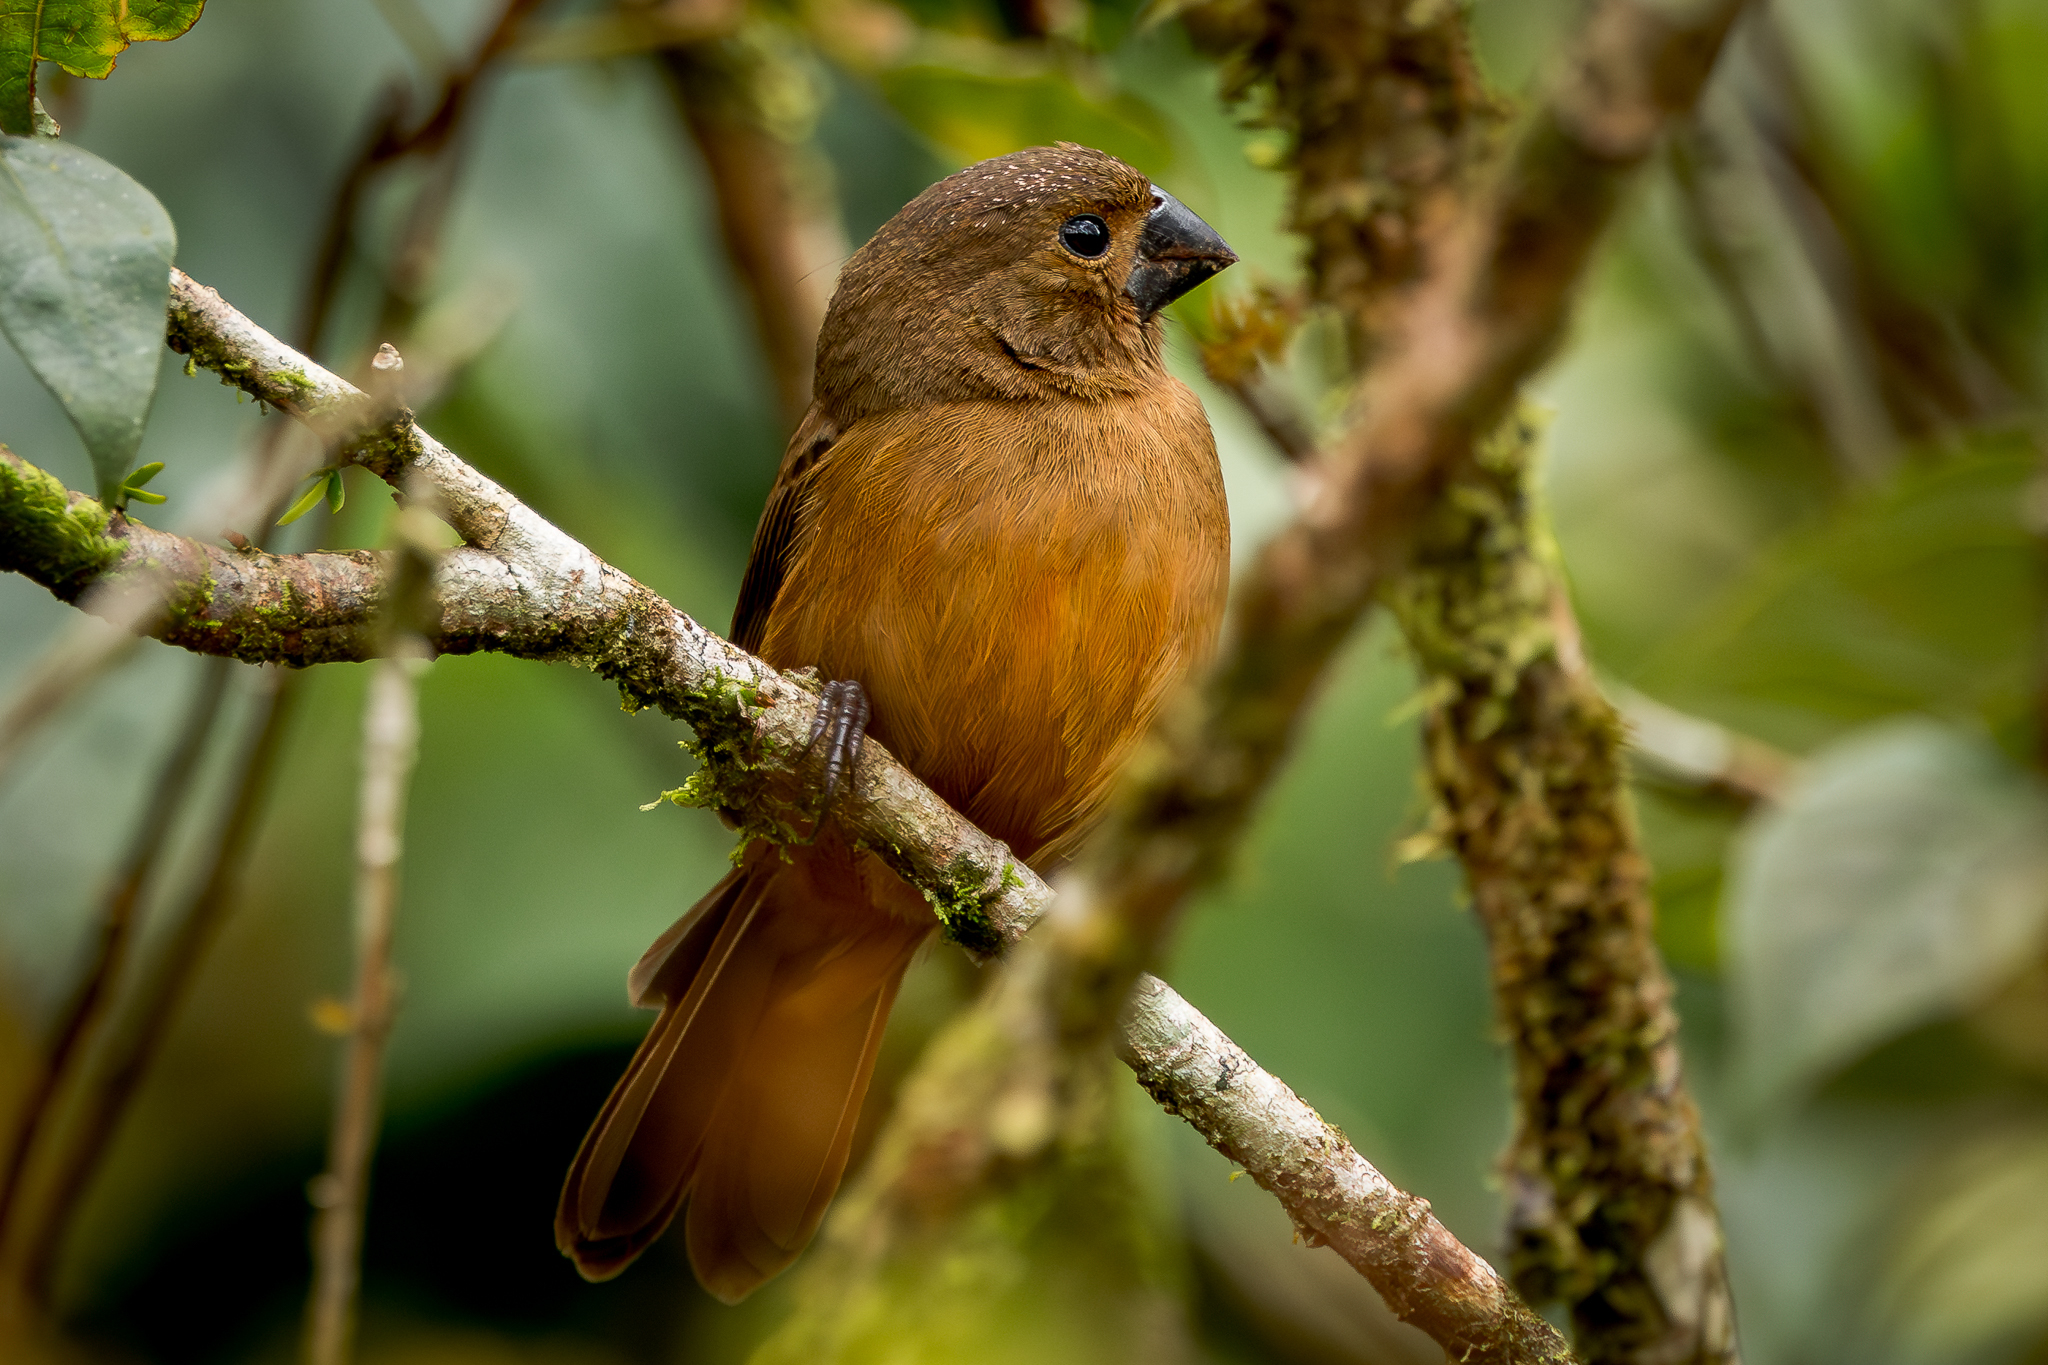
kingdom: Animalia
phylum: Chordata
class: Aves
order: Passeriformes
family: Thraupidae
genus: Sporophila
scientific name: Sporophila funerea
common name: Thick-billed seed-finch
